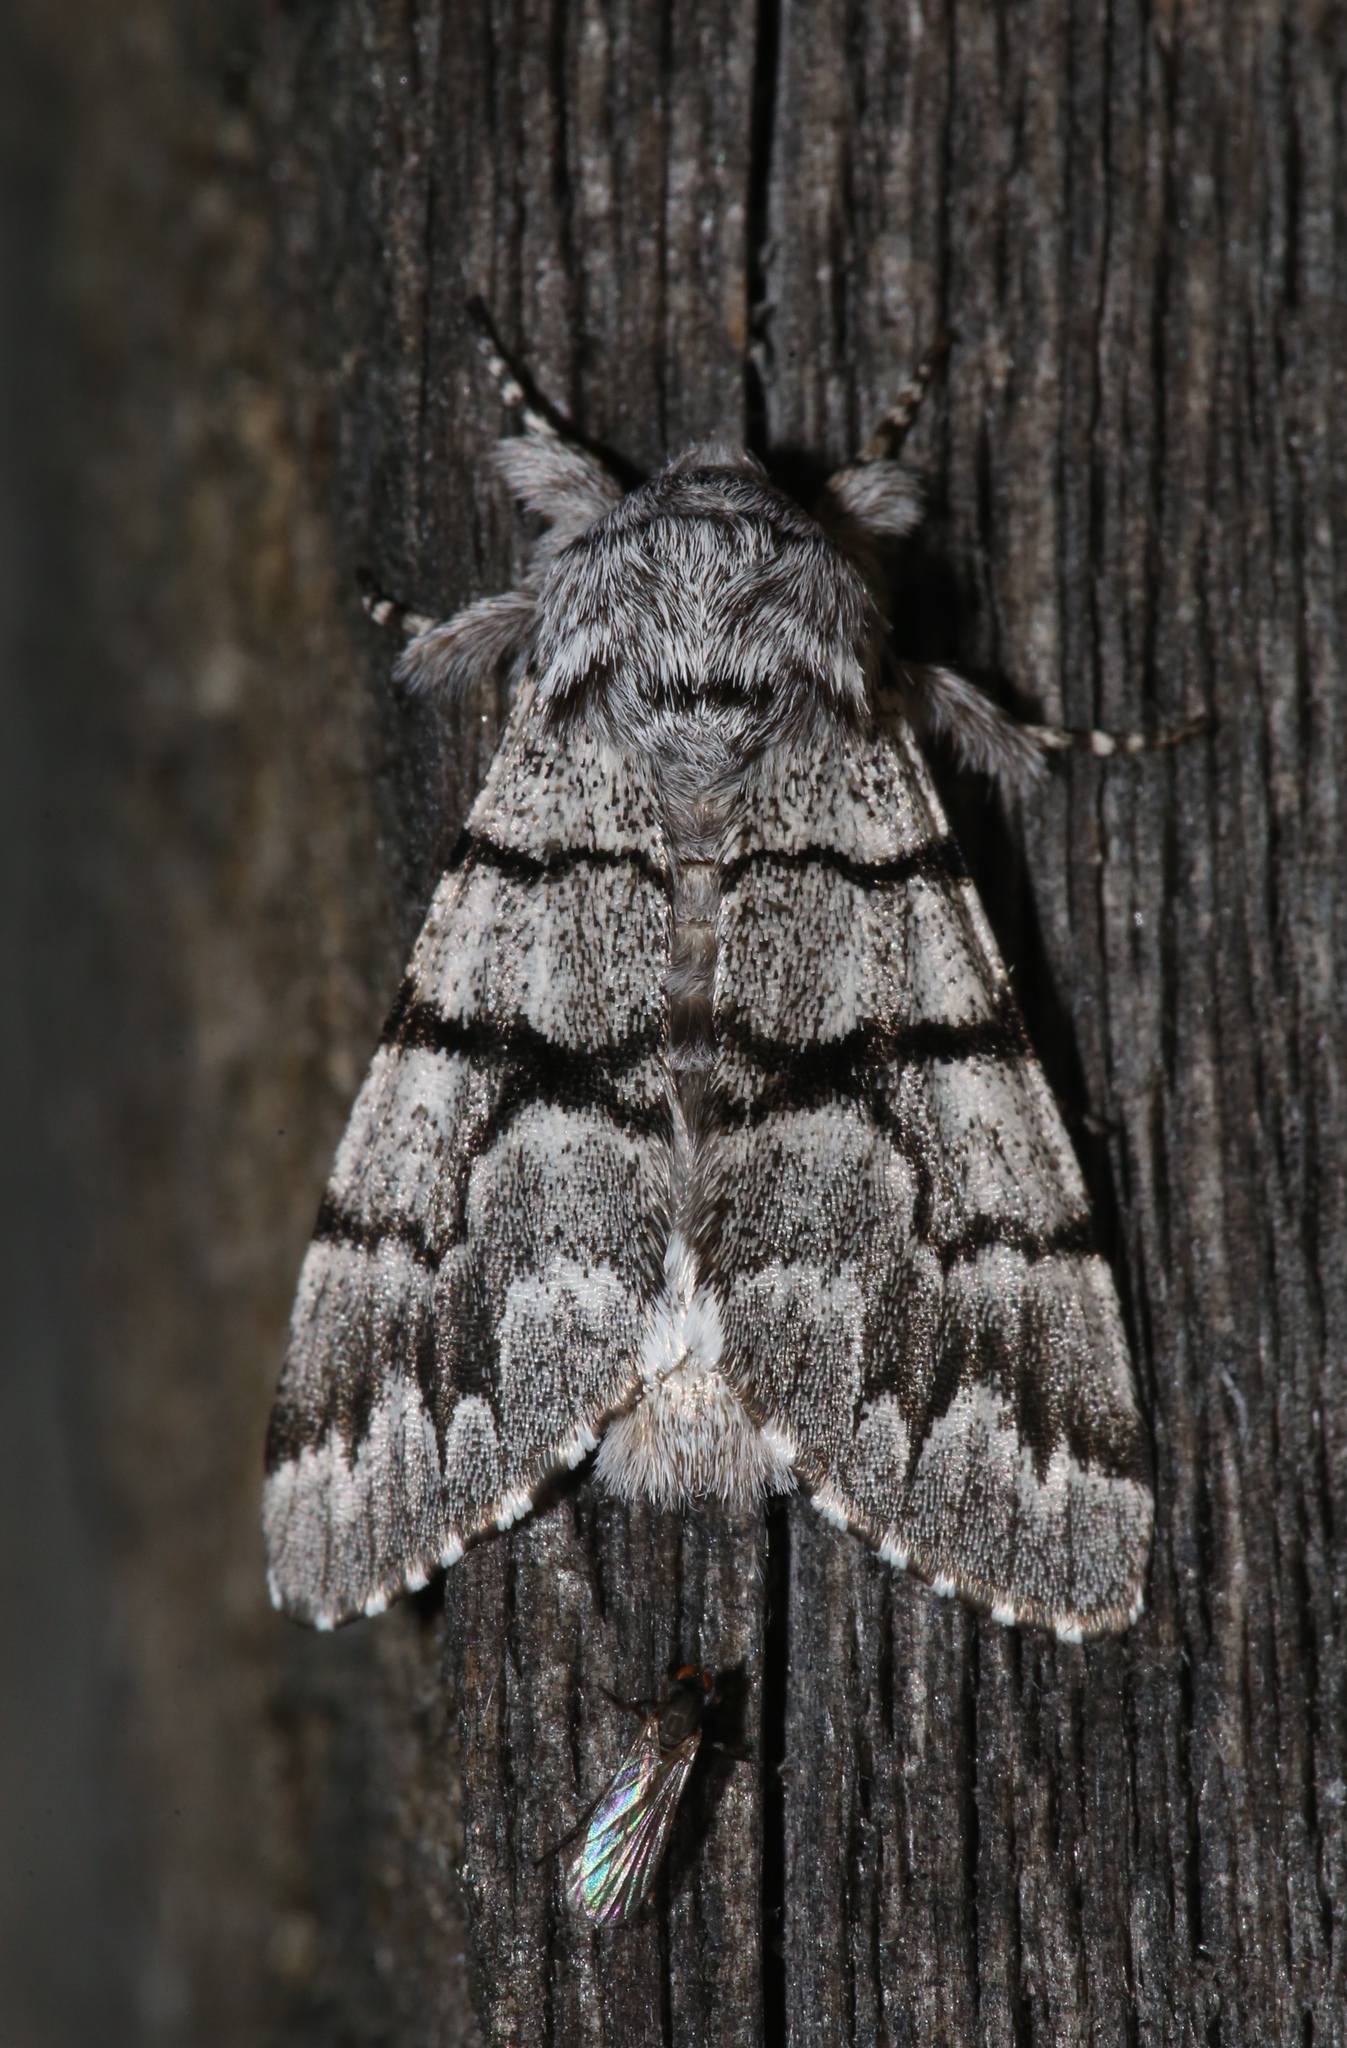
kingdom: Animalia
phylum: Arthropoda
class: Insecta
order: Lepidoptera
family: Noctuidae
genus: Panthea
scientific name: Panthea furcilla
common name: Eastern panthea moth
